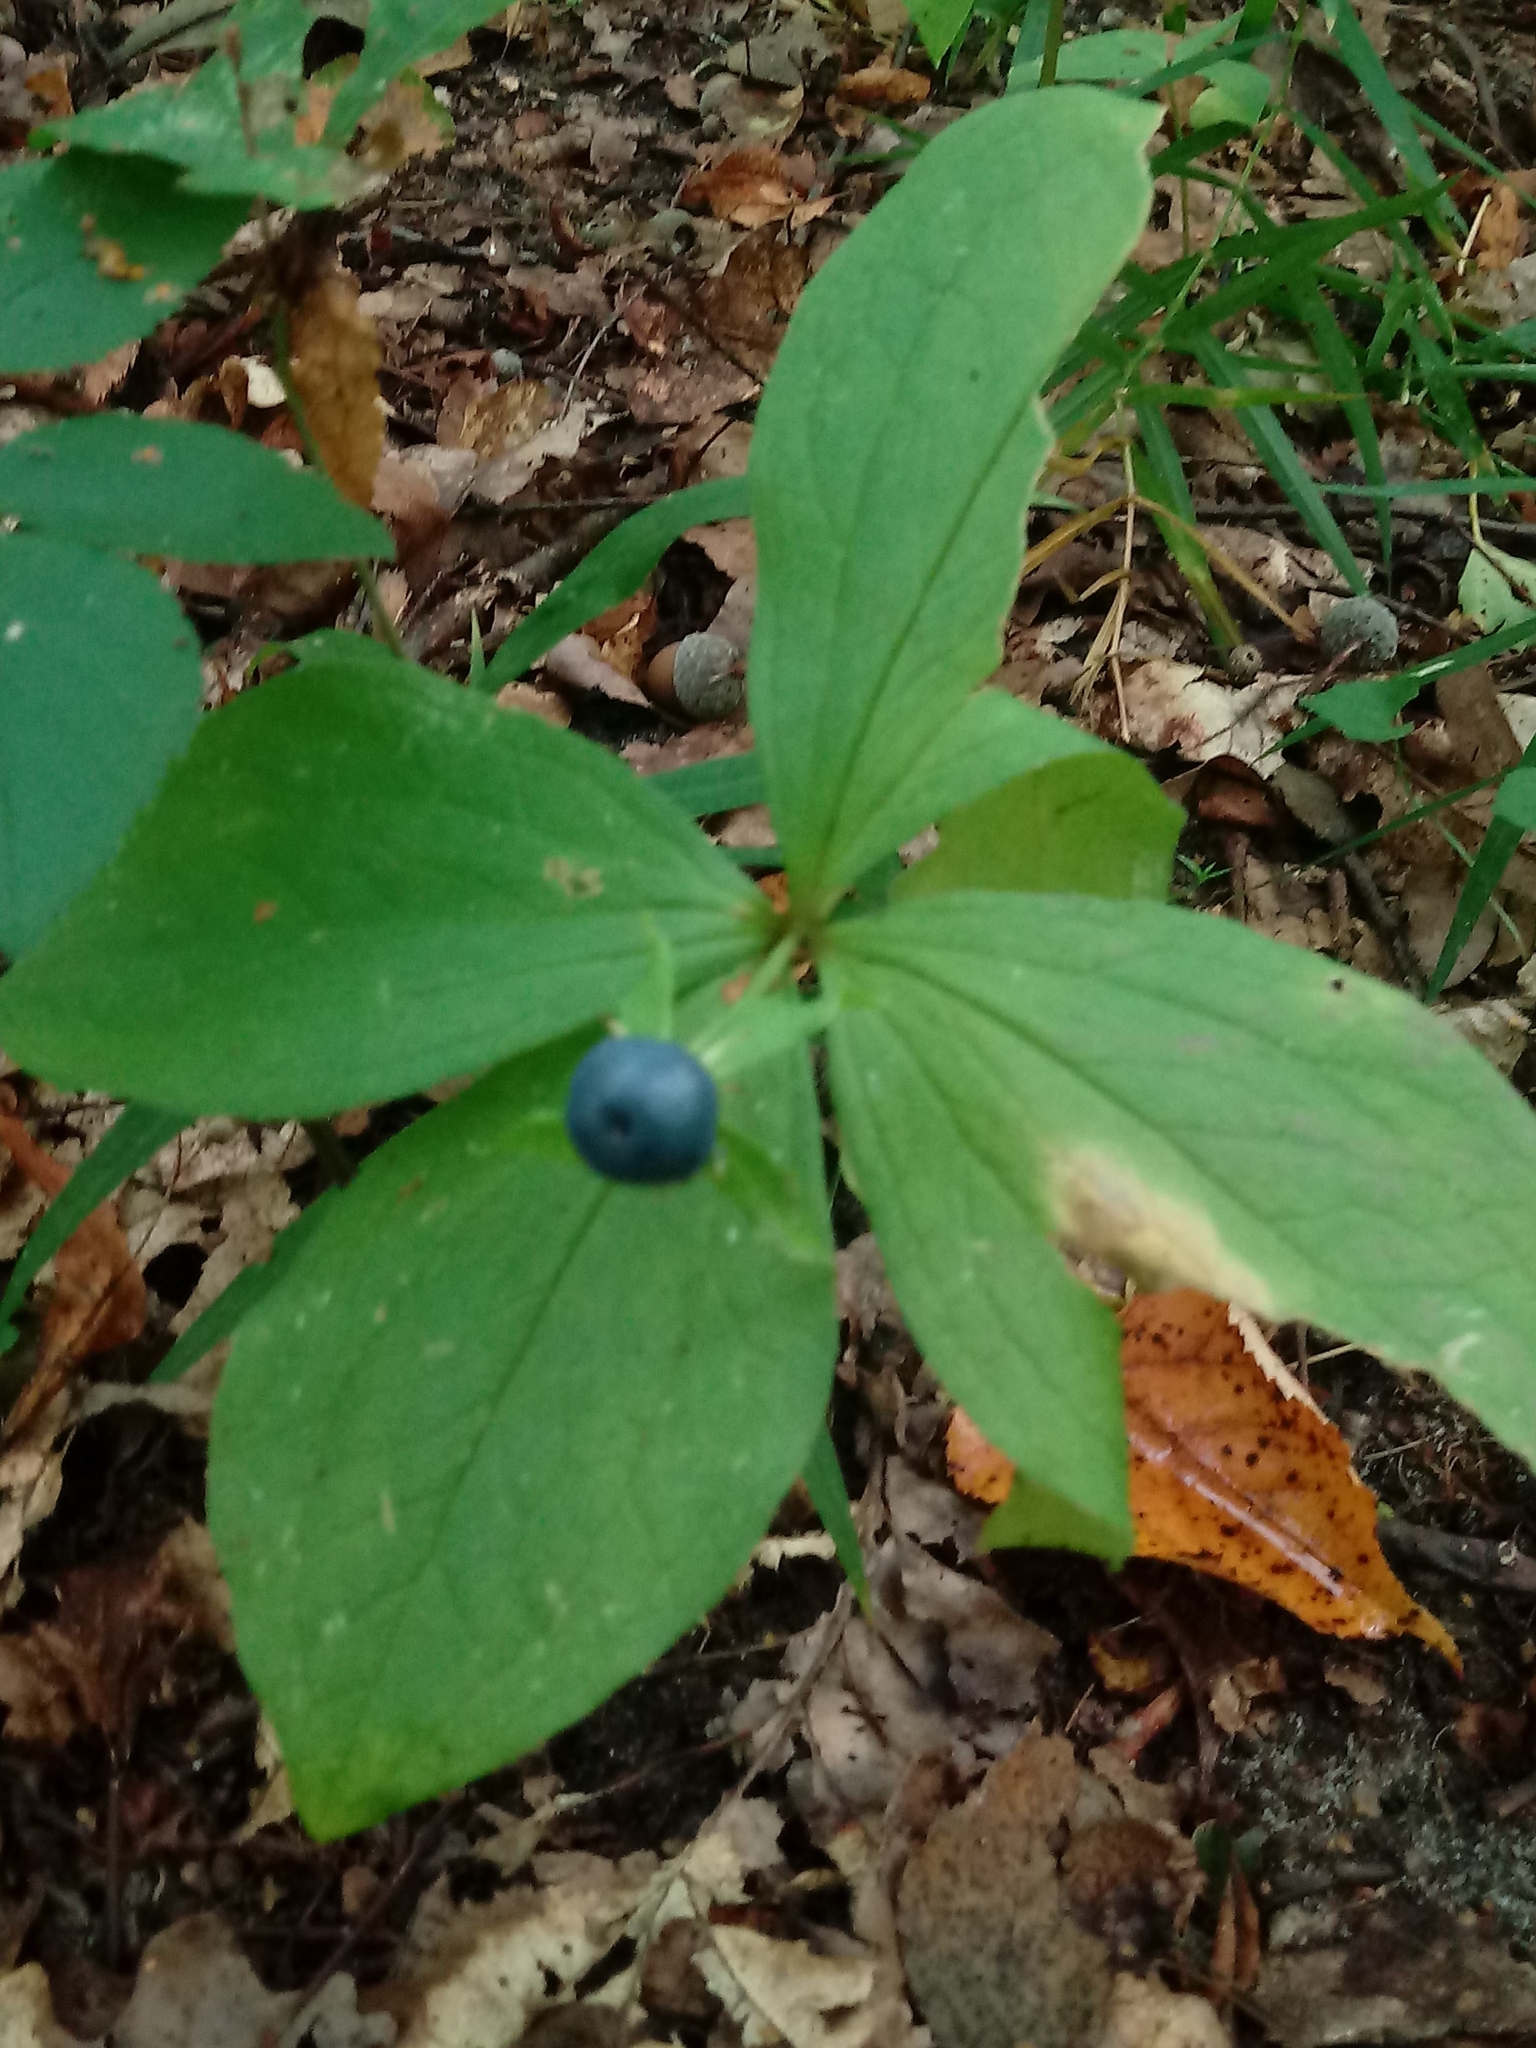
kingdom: Plantae
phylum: Tracheophyta
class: Liliopsida
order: Liliales
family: Melanthiaceae
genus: Paris
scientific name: Paris quadrifolia
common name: Herb-paris
